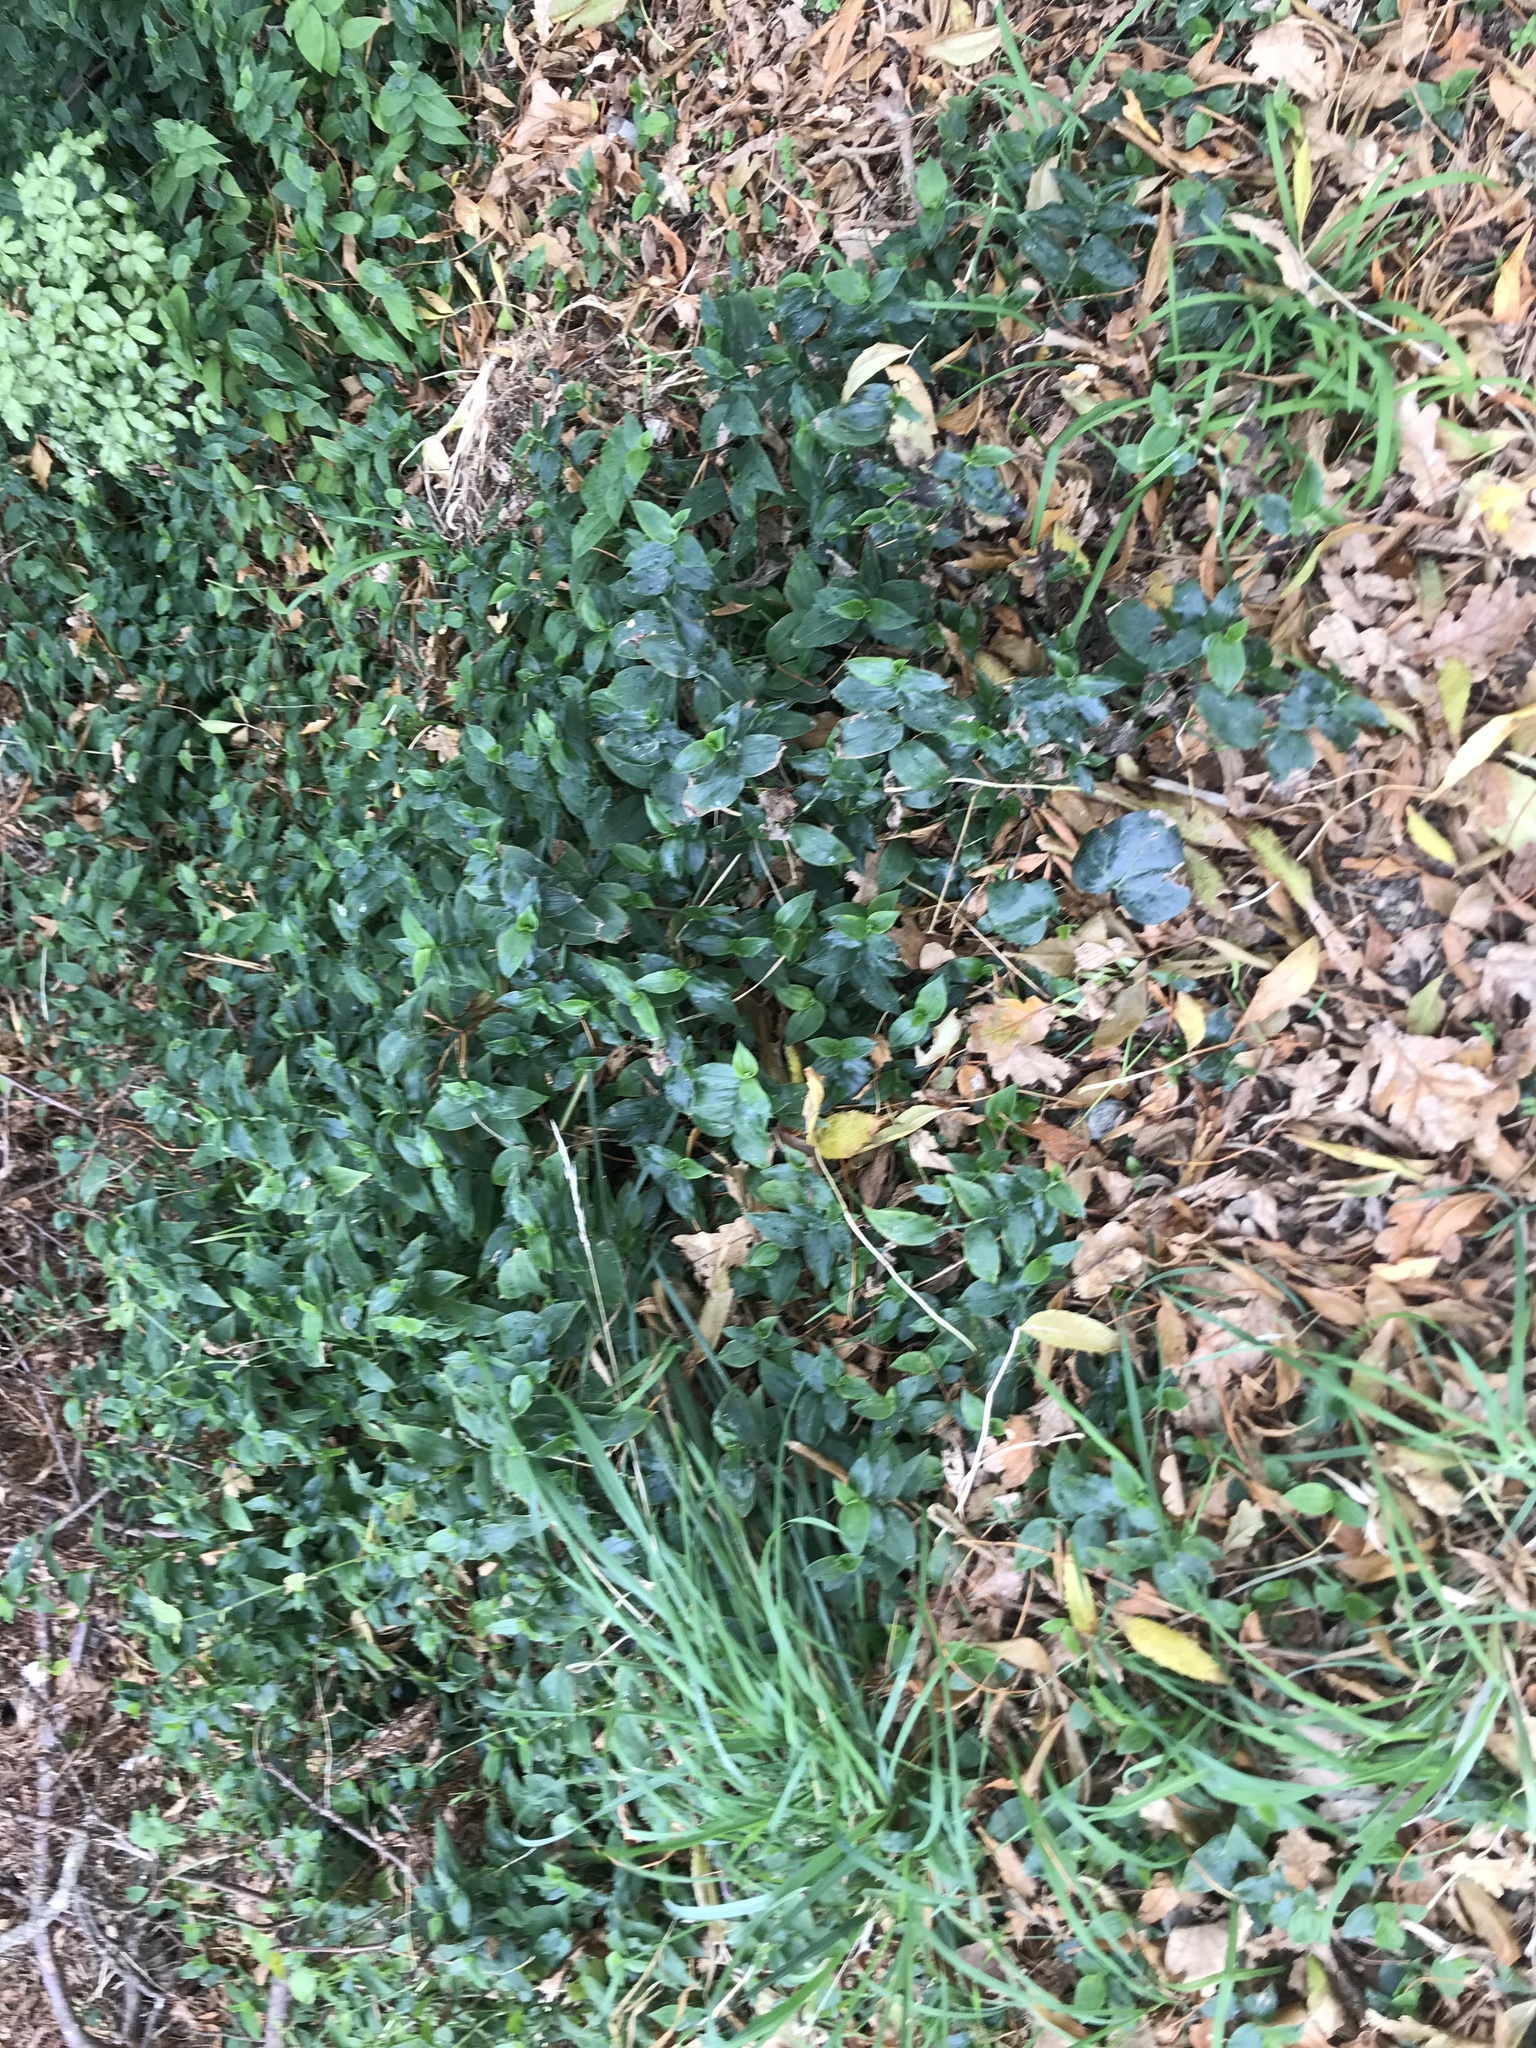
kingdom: Plantae
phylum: Tracheophyta
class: Liliopsida
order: Commelinales
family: Commelinaceae
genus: Tradescantia
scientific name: Tradescantia fluminensis
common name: Wandering-jew
